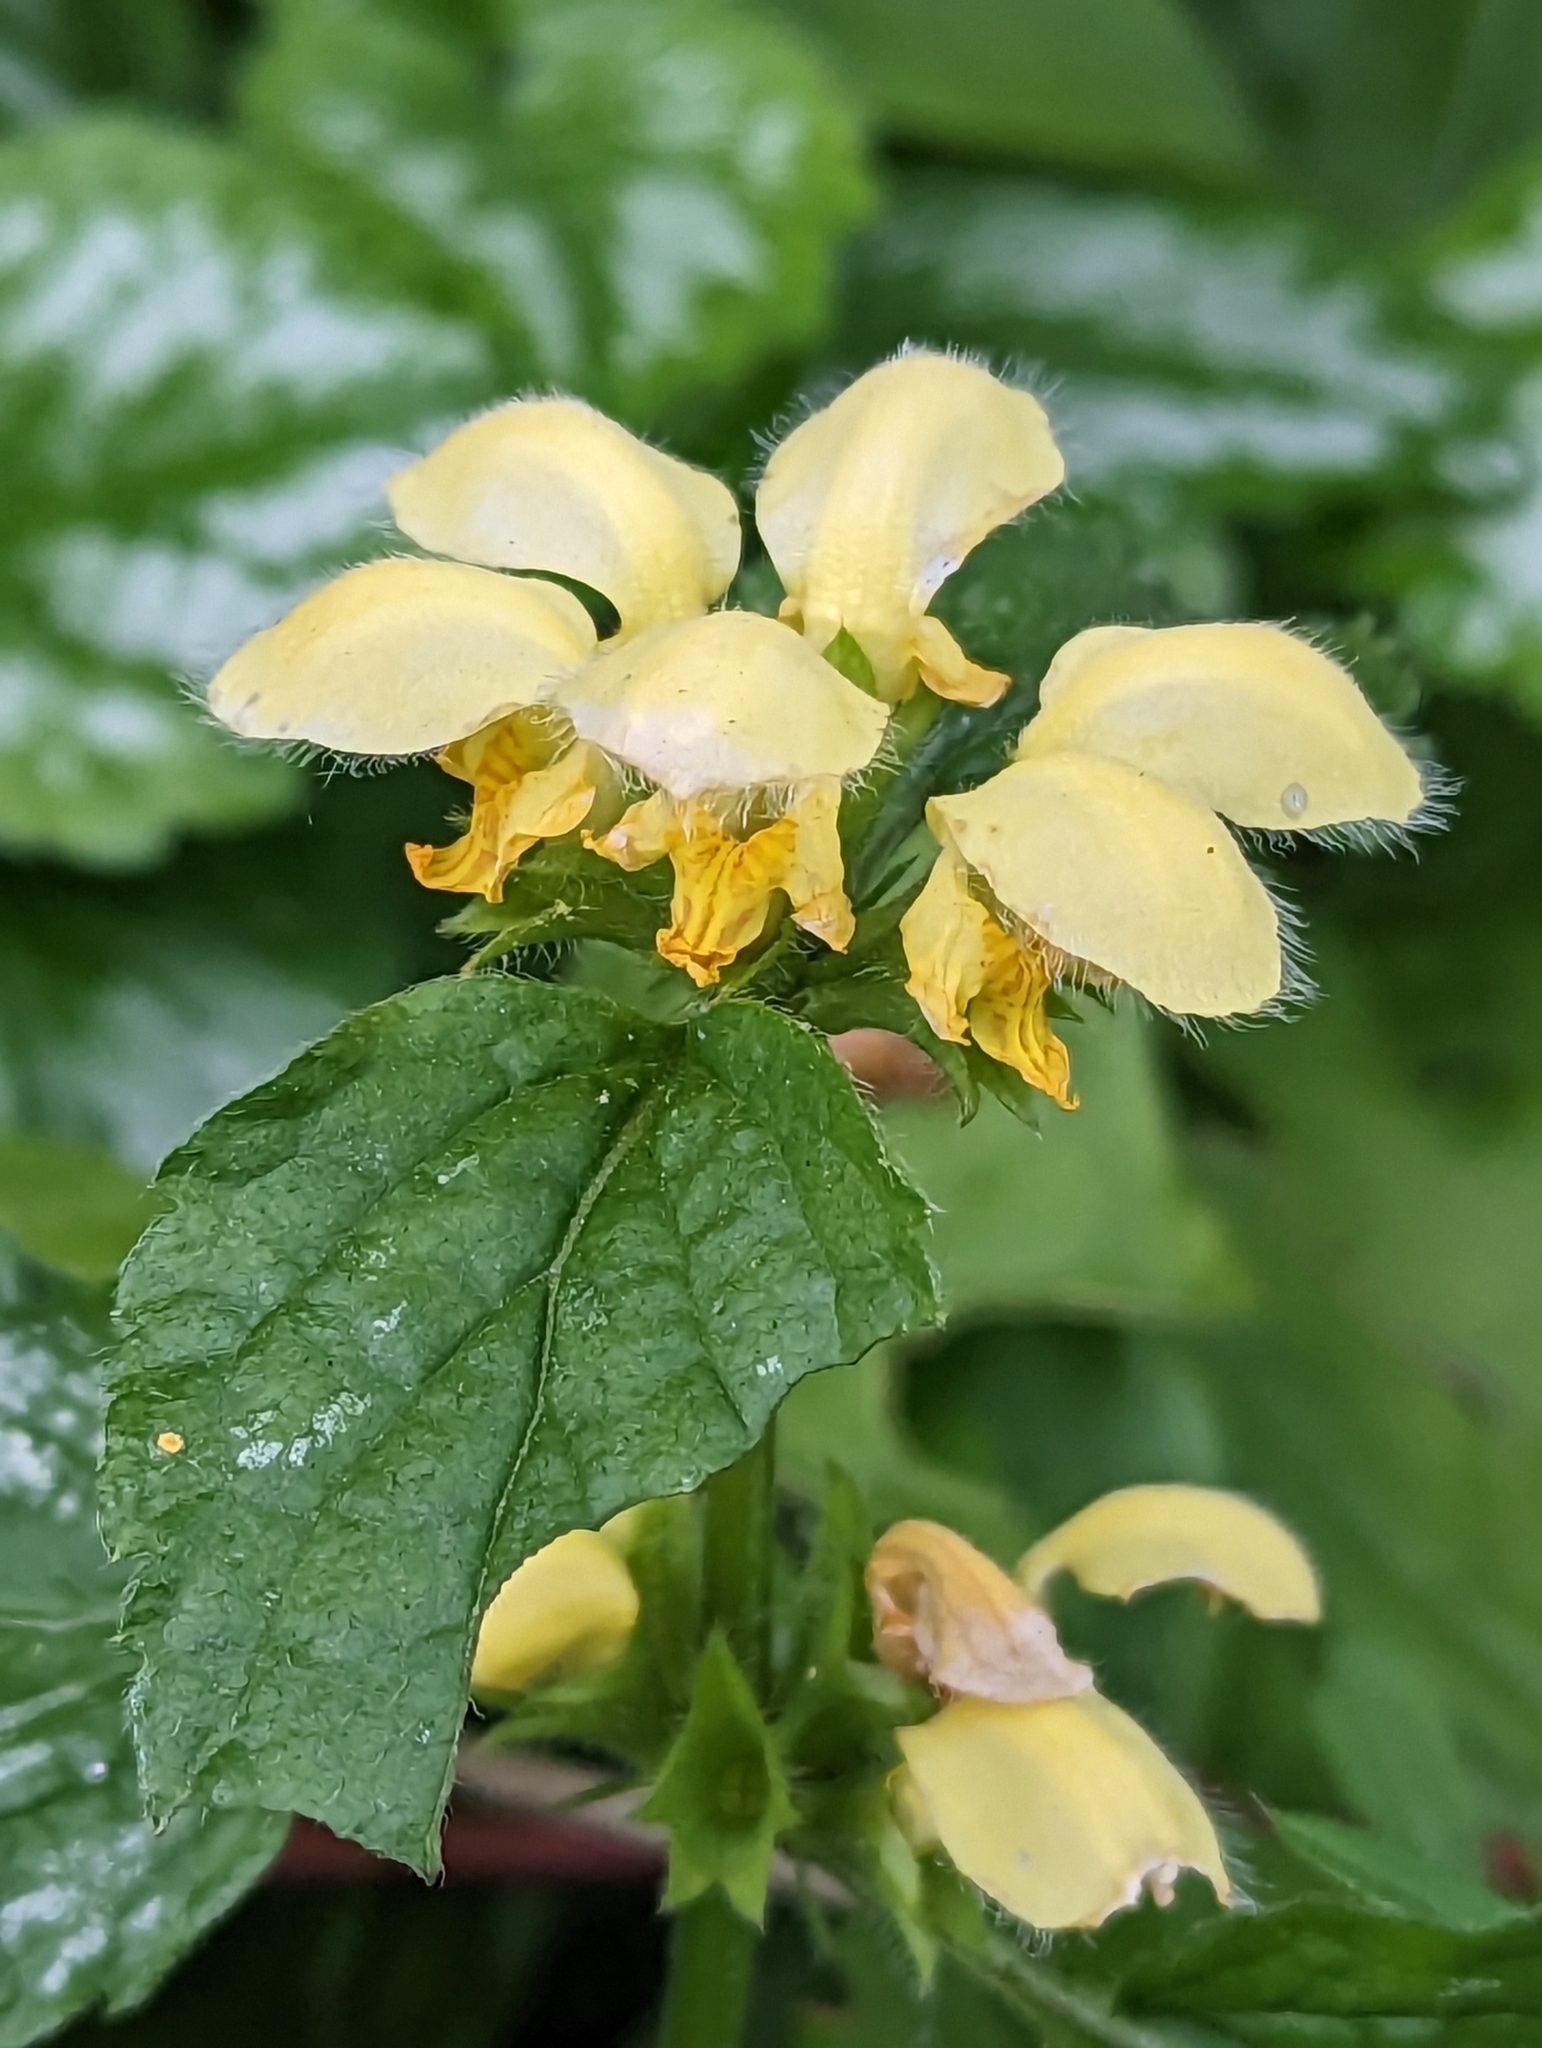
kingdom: Plantae
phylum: Tracheophyta
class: Magnoliopsida
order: Lamiales
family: Lamiaceae
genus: Lamium
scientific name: Lamium galeobdolon
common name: Yellow archangel
